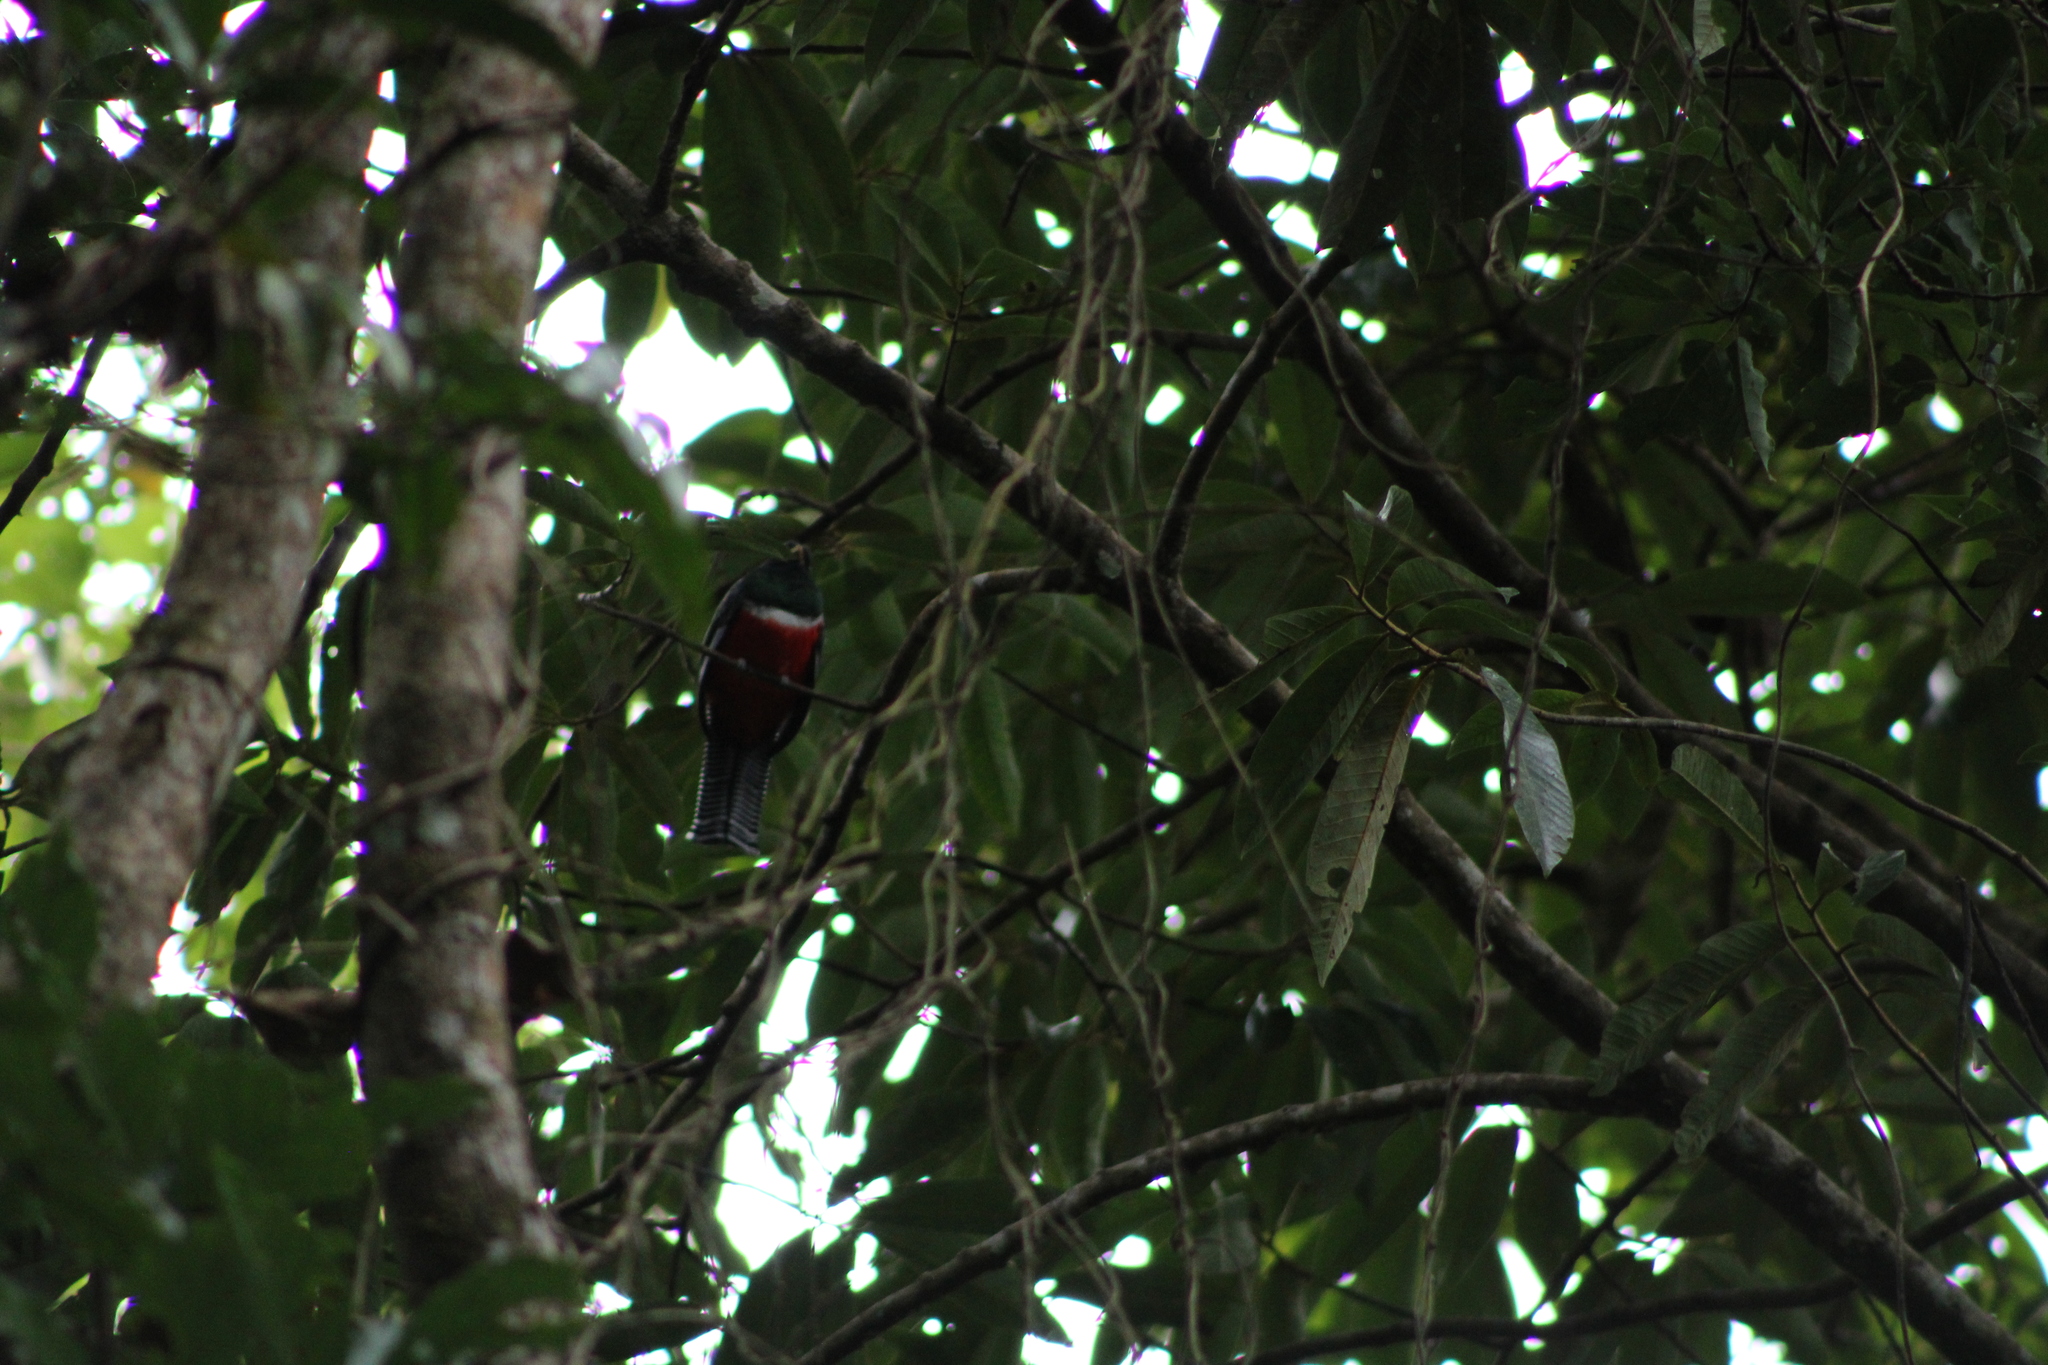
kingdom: Animalia
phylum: Chordata
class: Aves
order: Trogoniformes
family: Trogonidae
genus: Trogon
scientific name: Trogon collaris
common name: Collared trogon
